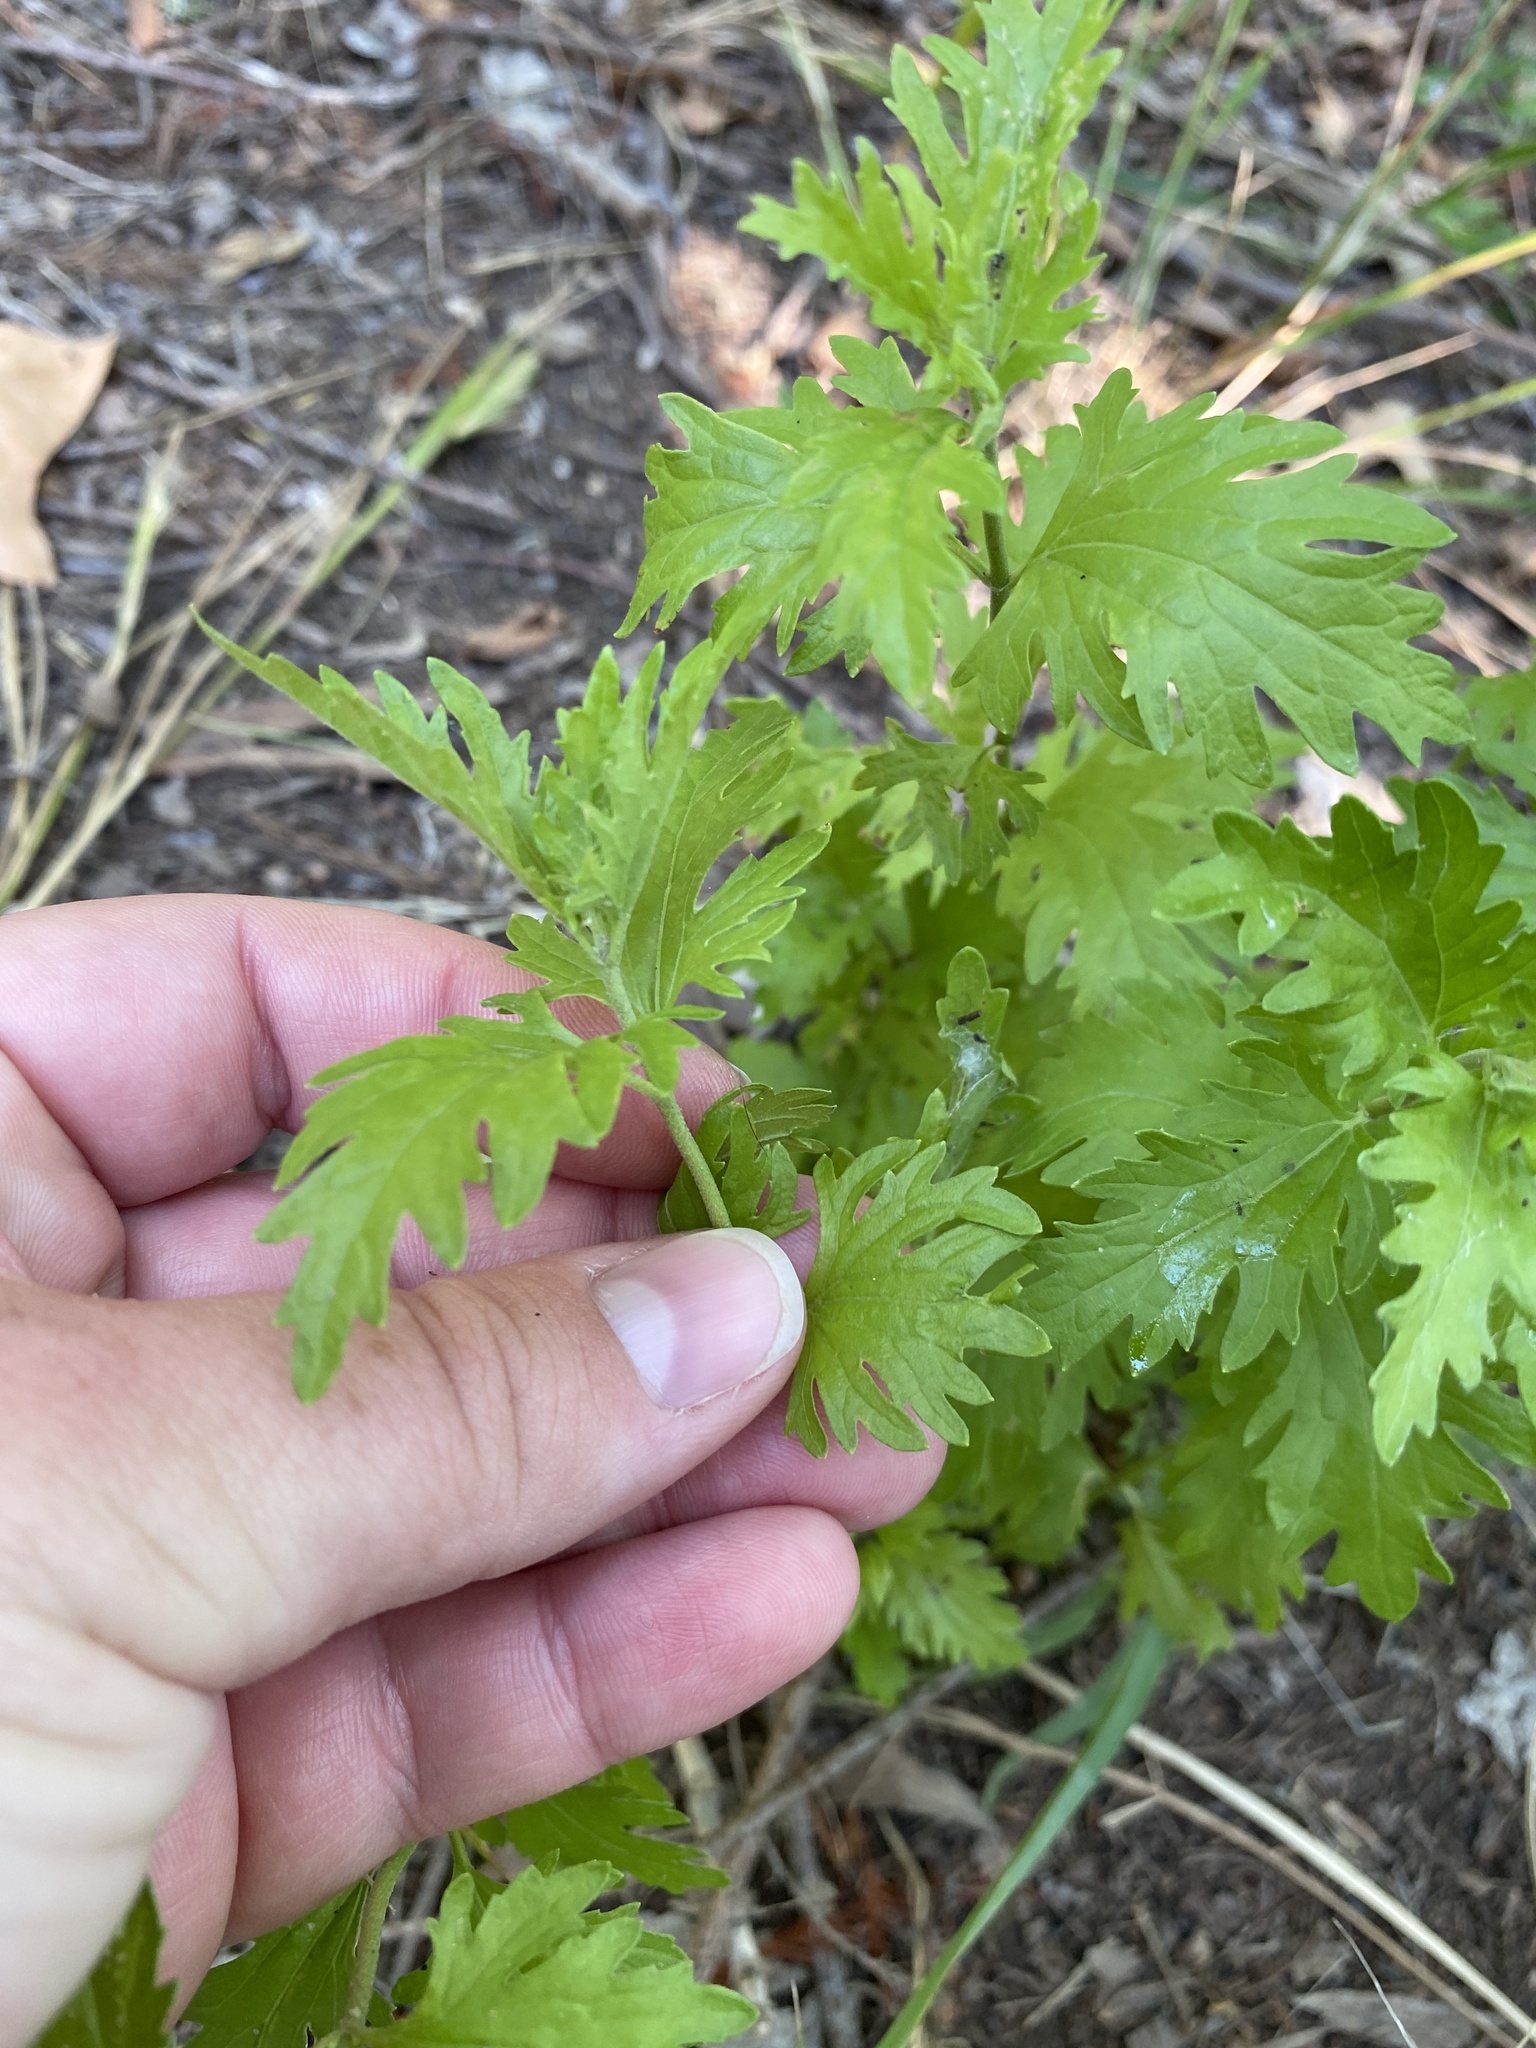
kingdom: Plantae
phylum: Tracheophyta
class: Magnoliopsida
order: Asterales
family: Asteraceae
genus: Conoclinium
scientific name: Conoclinium dissectum
